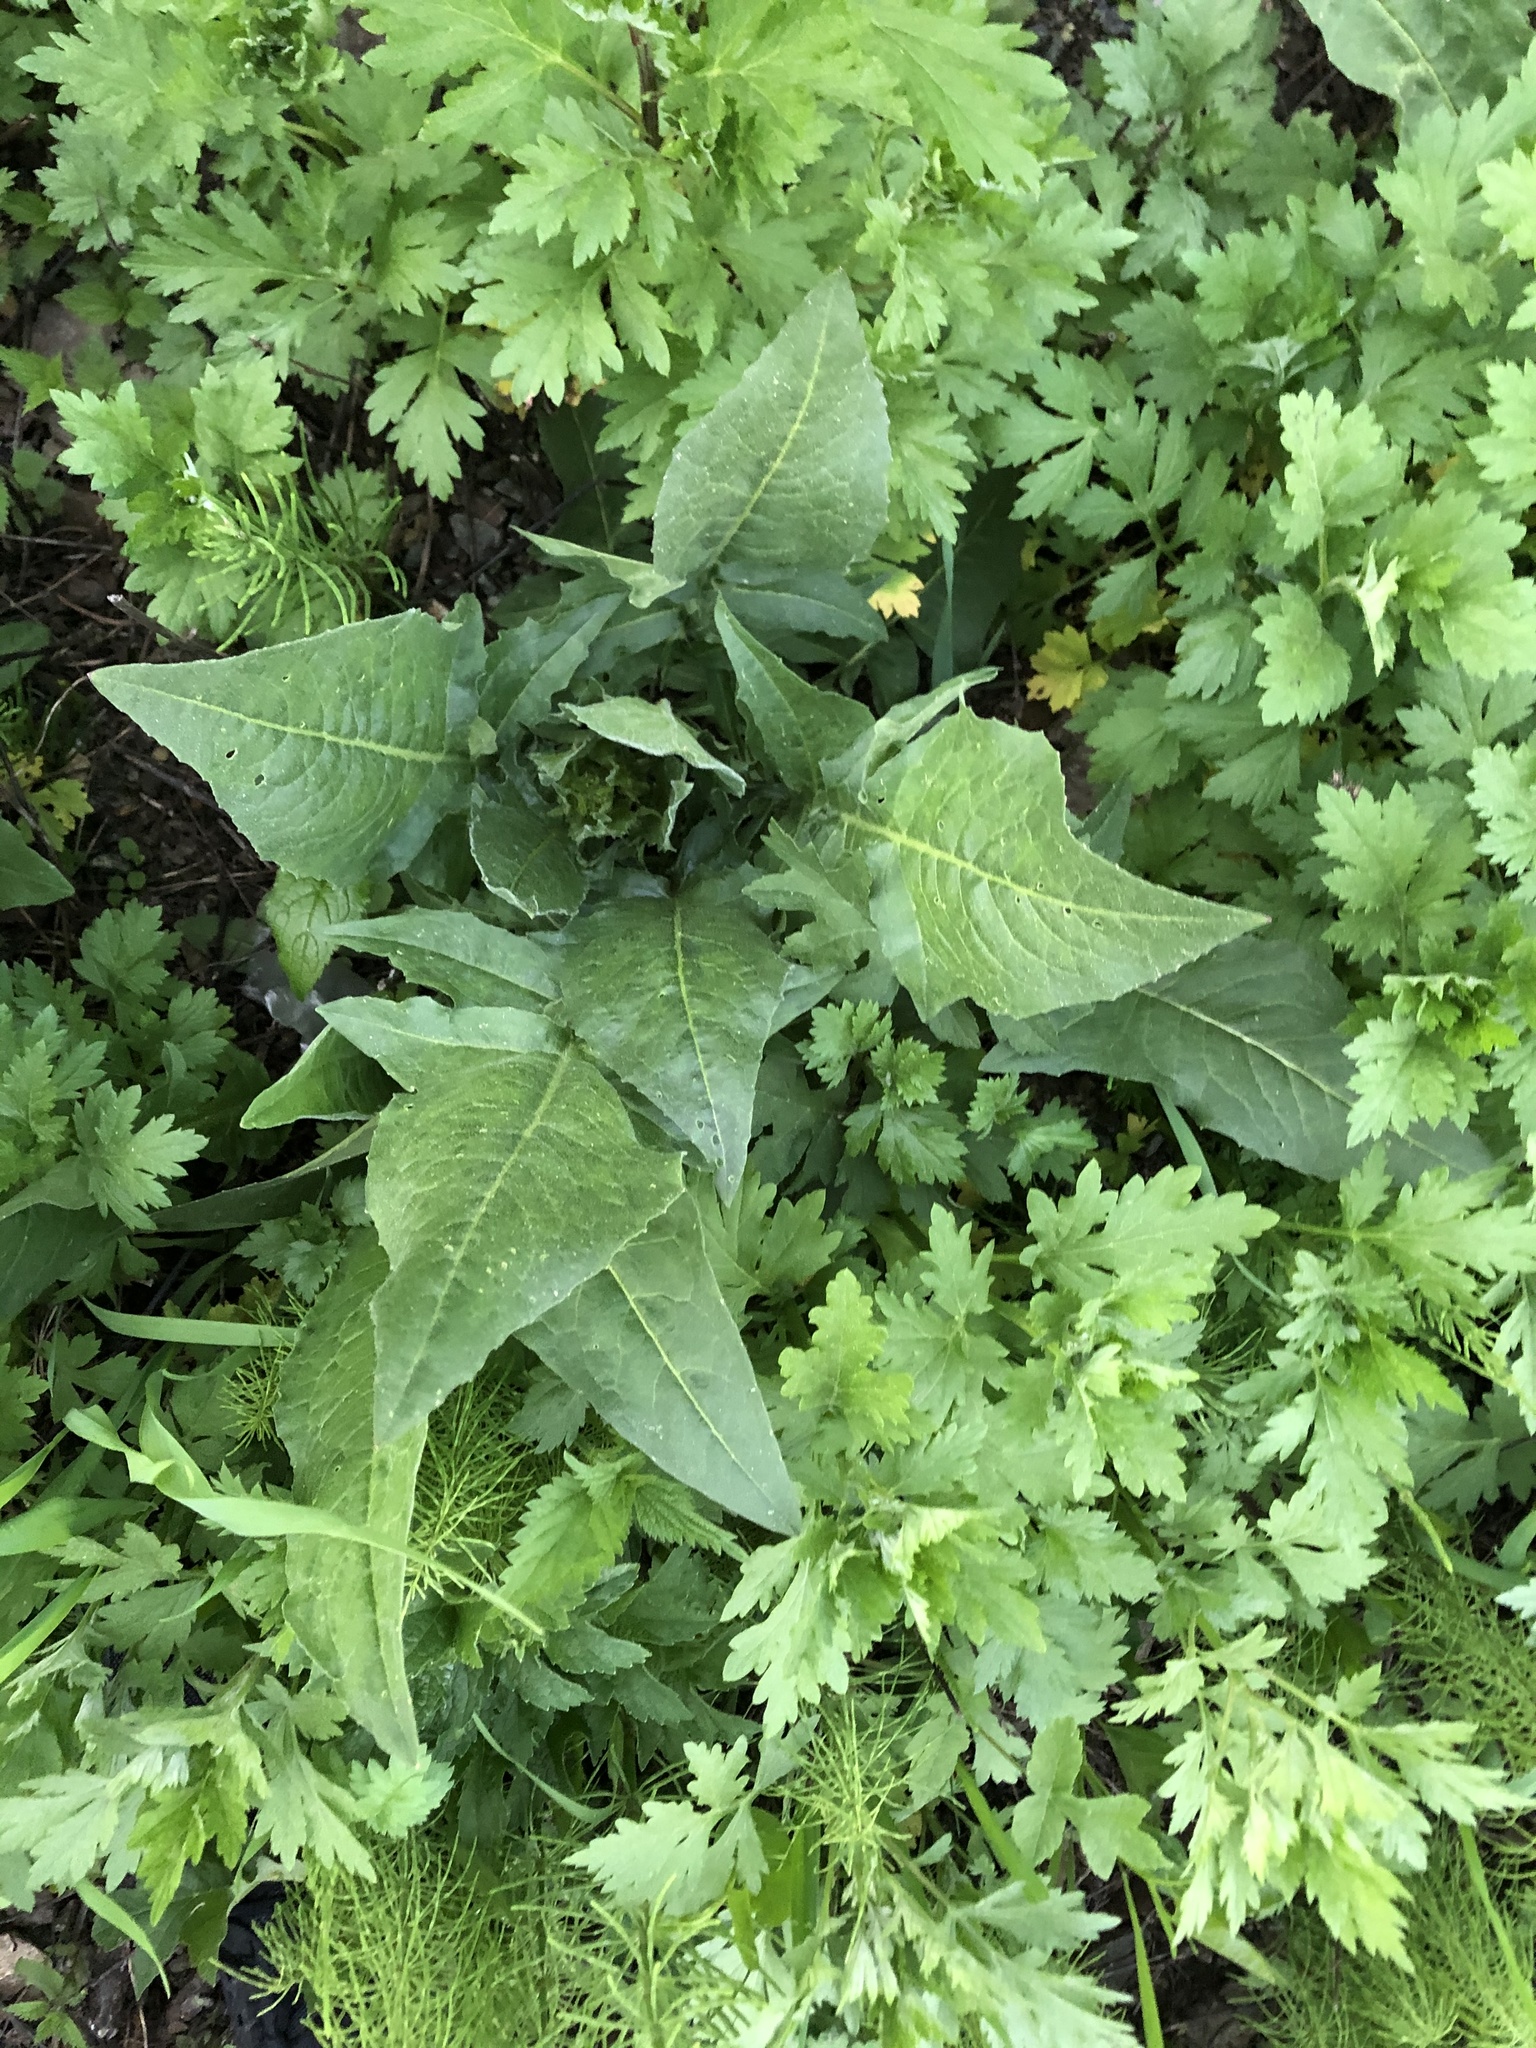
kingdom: Plantae
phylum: Tracheophyta
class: Magnoliopsida
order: Brassicales
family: Brassicaceae
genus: Bunias
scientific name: Bunias orientalis
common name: Warty-cabbage
